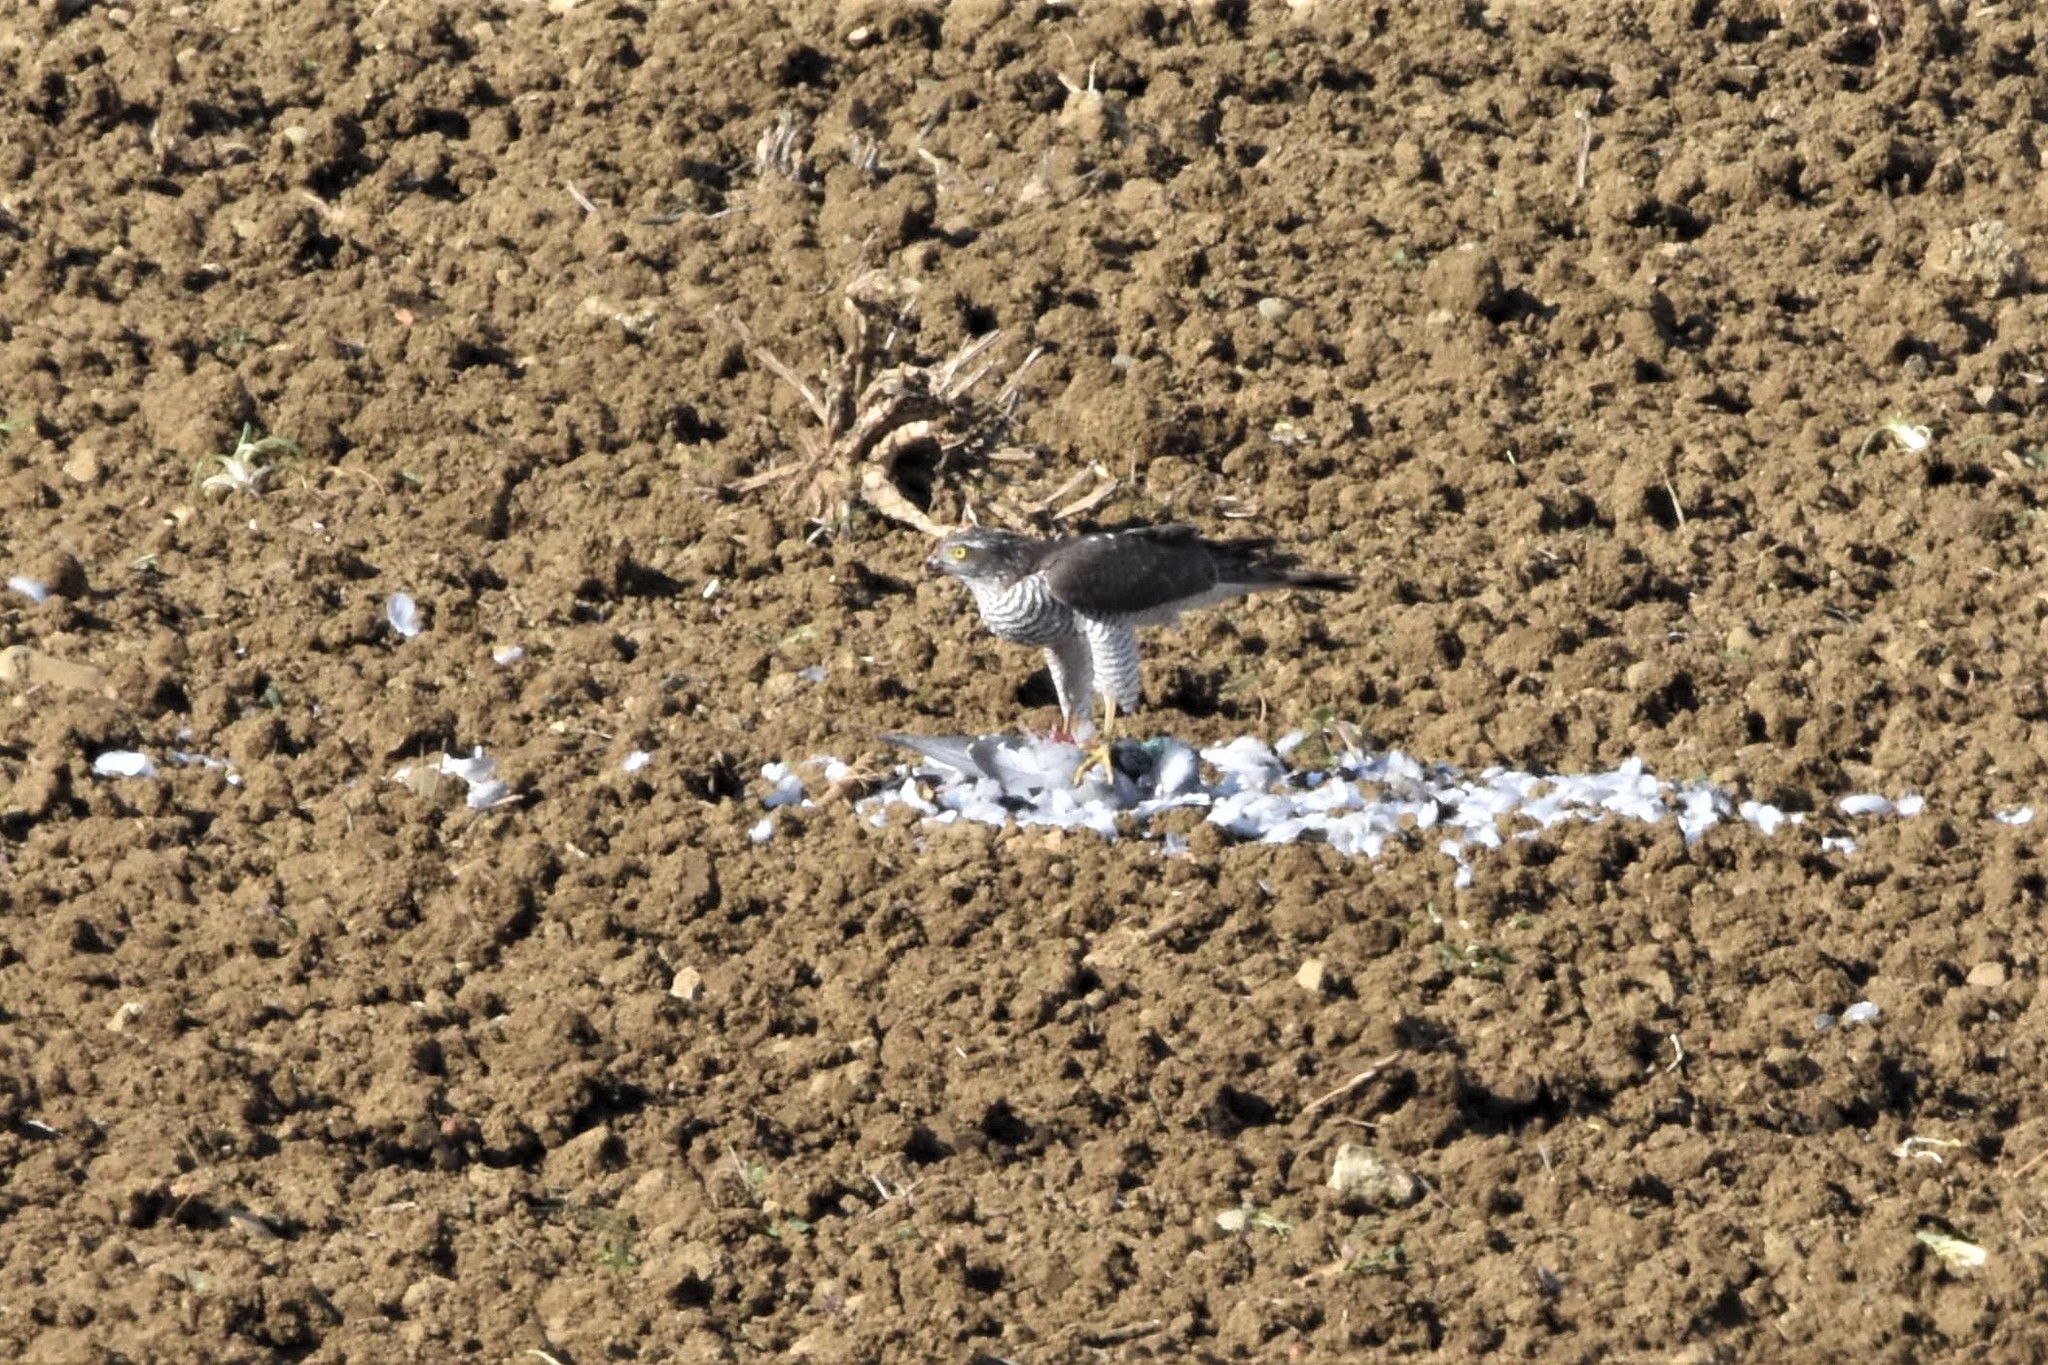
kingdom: Animalia
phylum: Chordata
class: Aves
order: Accipitriformes
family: Accipitridae
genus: Accipiter
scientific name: Accipiter nisus
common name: Eurasian sparrowhawk
